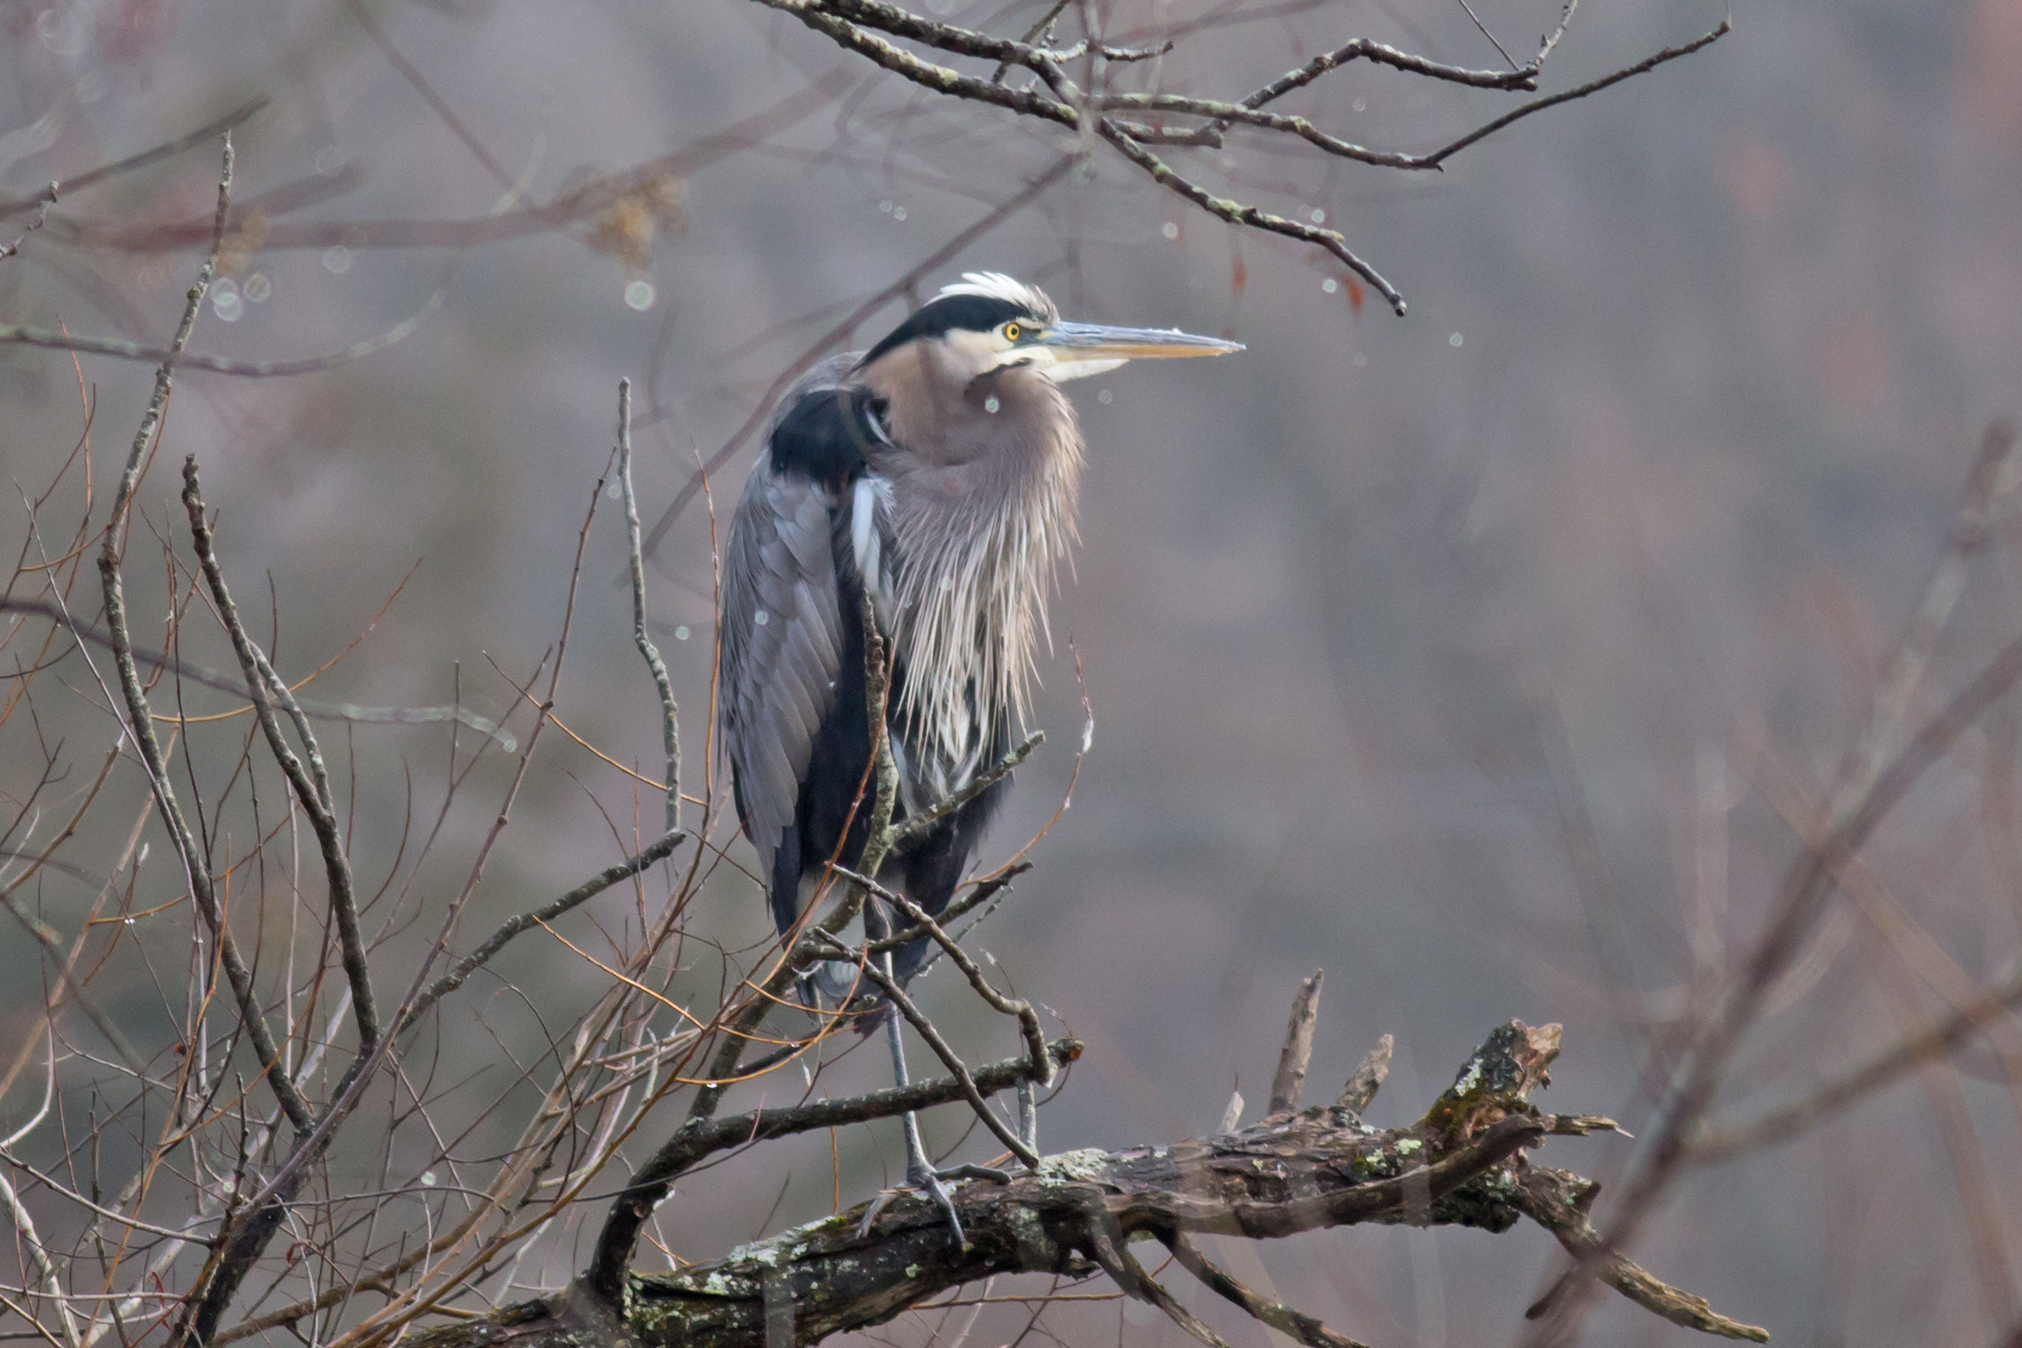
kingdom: Animalia
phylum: Chordata
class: Aves
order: Pelecaniformes
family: Ardeidae
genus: Ardea
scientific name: Ardea herodias
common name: Great blue heron
